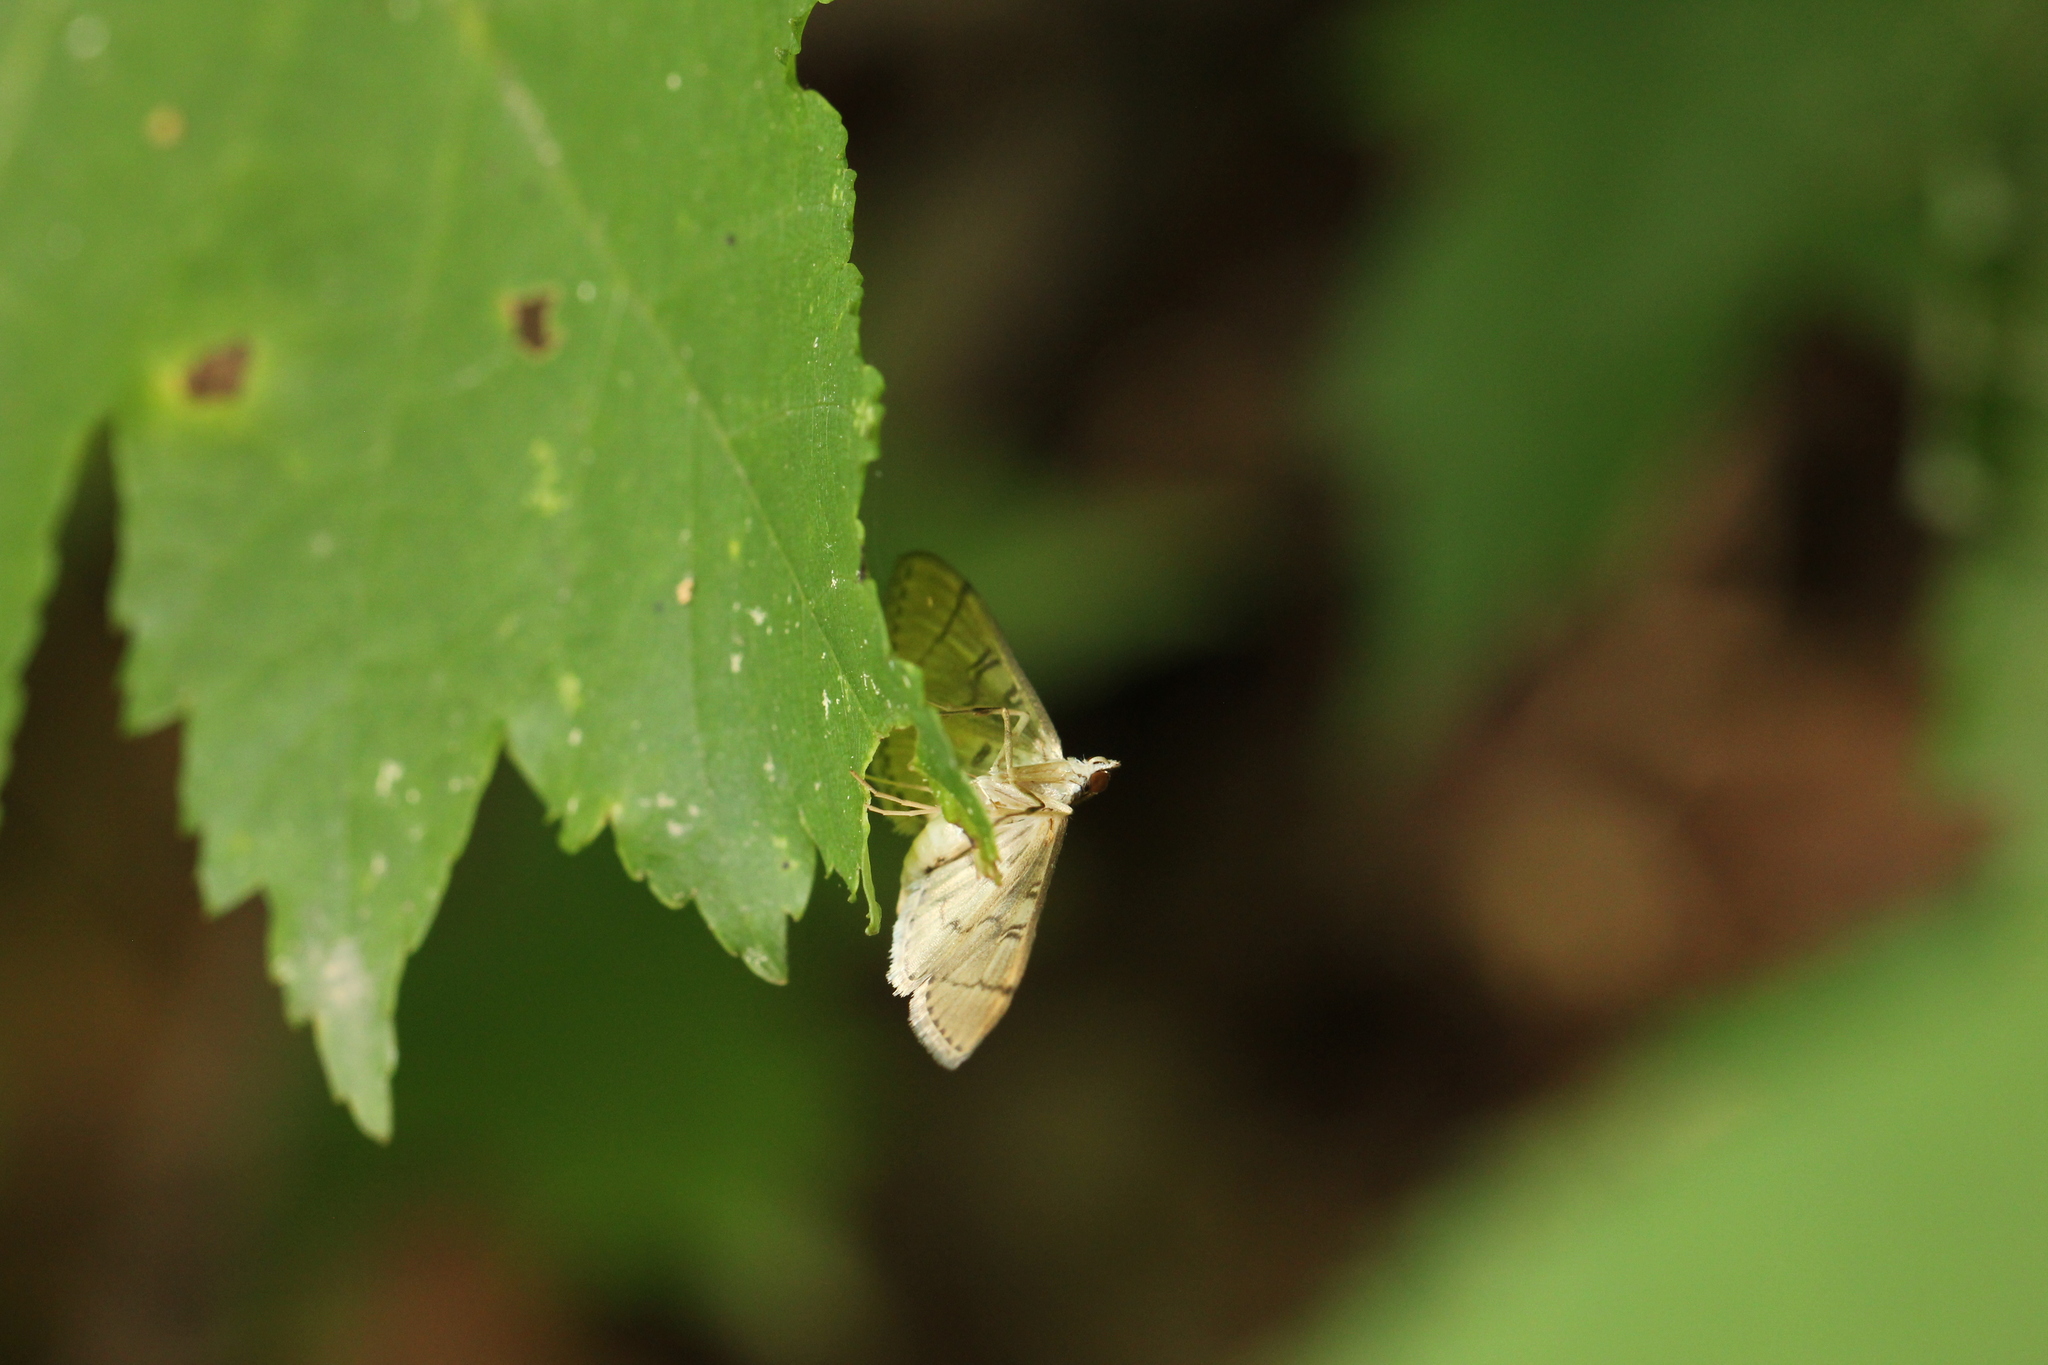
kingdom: Animalia
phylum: Arthropoda
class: Insecta
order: Lepidoptera
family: Crambidae
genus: Lamprosema
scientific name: Lamprosema Blepharomastix ranalis
